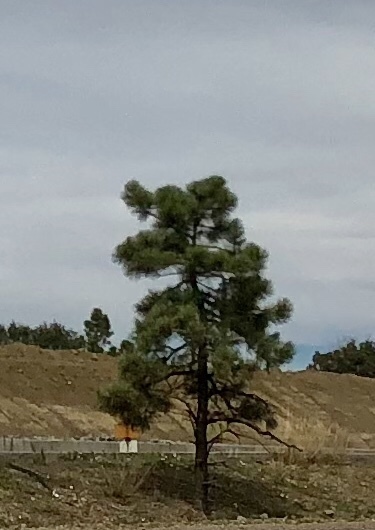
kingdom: Plantae
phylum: Tracheophyta
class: Pinopsida
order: Pinales
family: Pinaceae
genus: Pinus
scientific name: Pinus ponderosa
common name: Western yellow-pine
